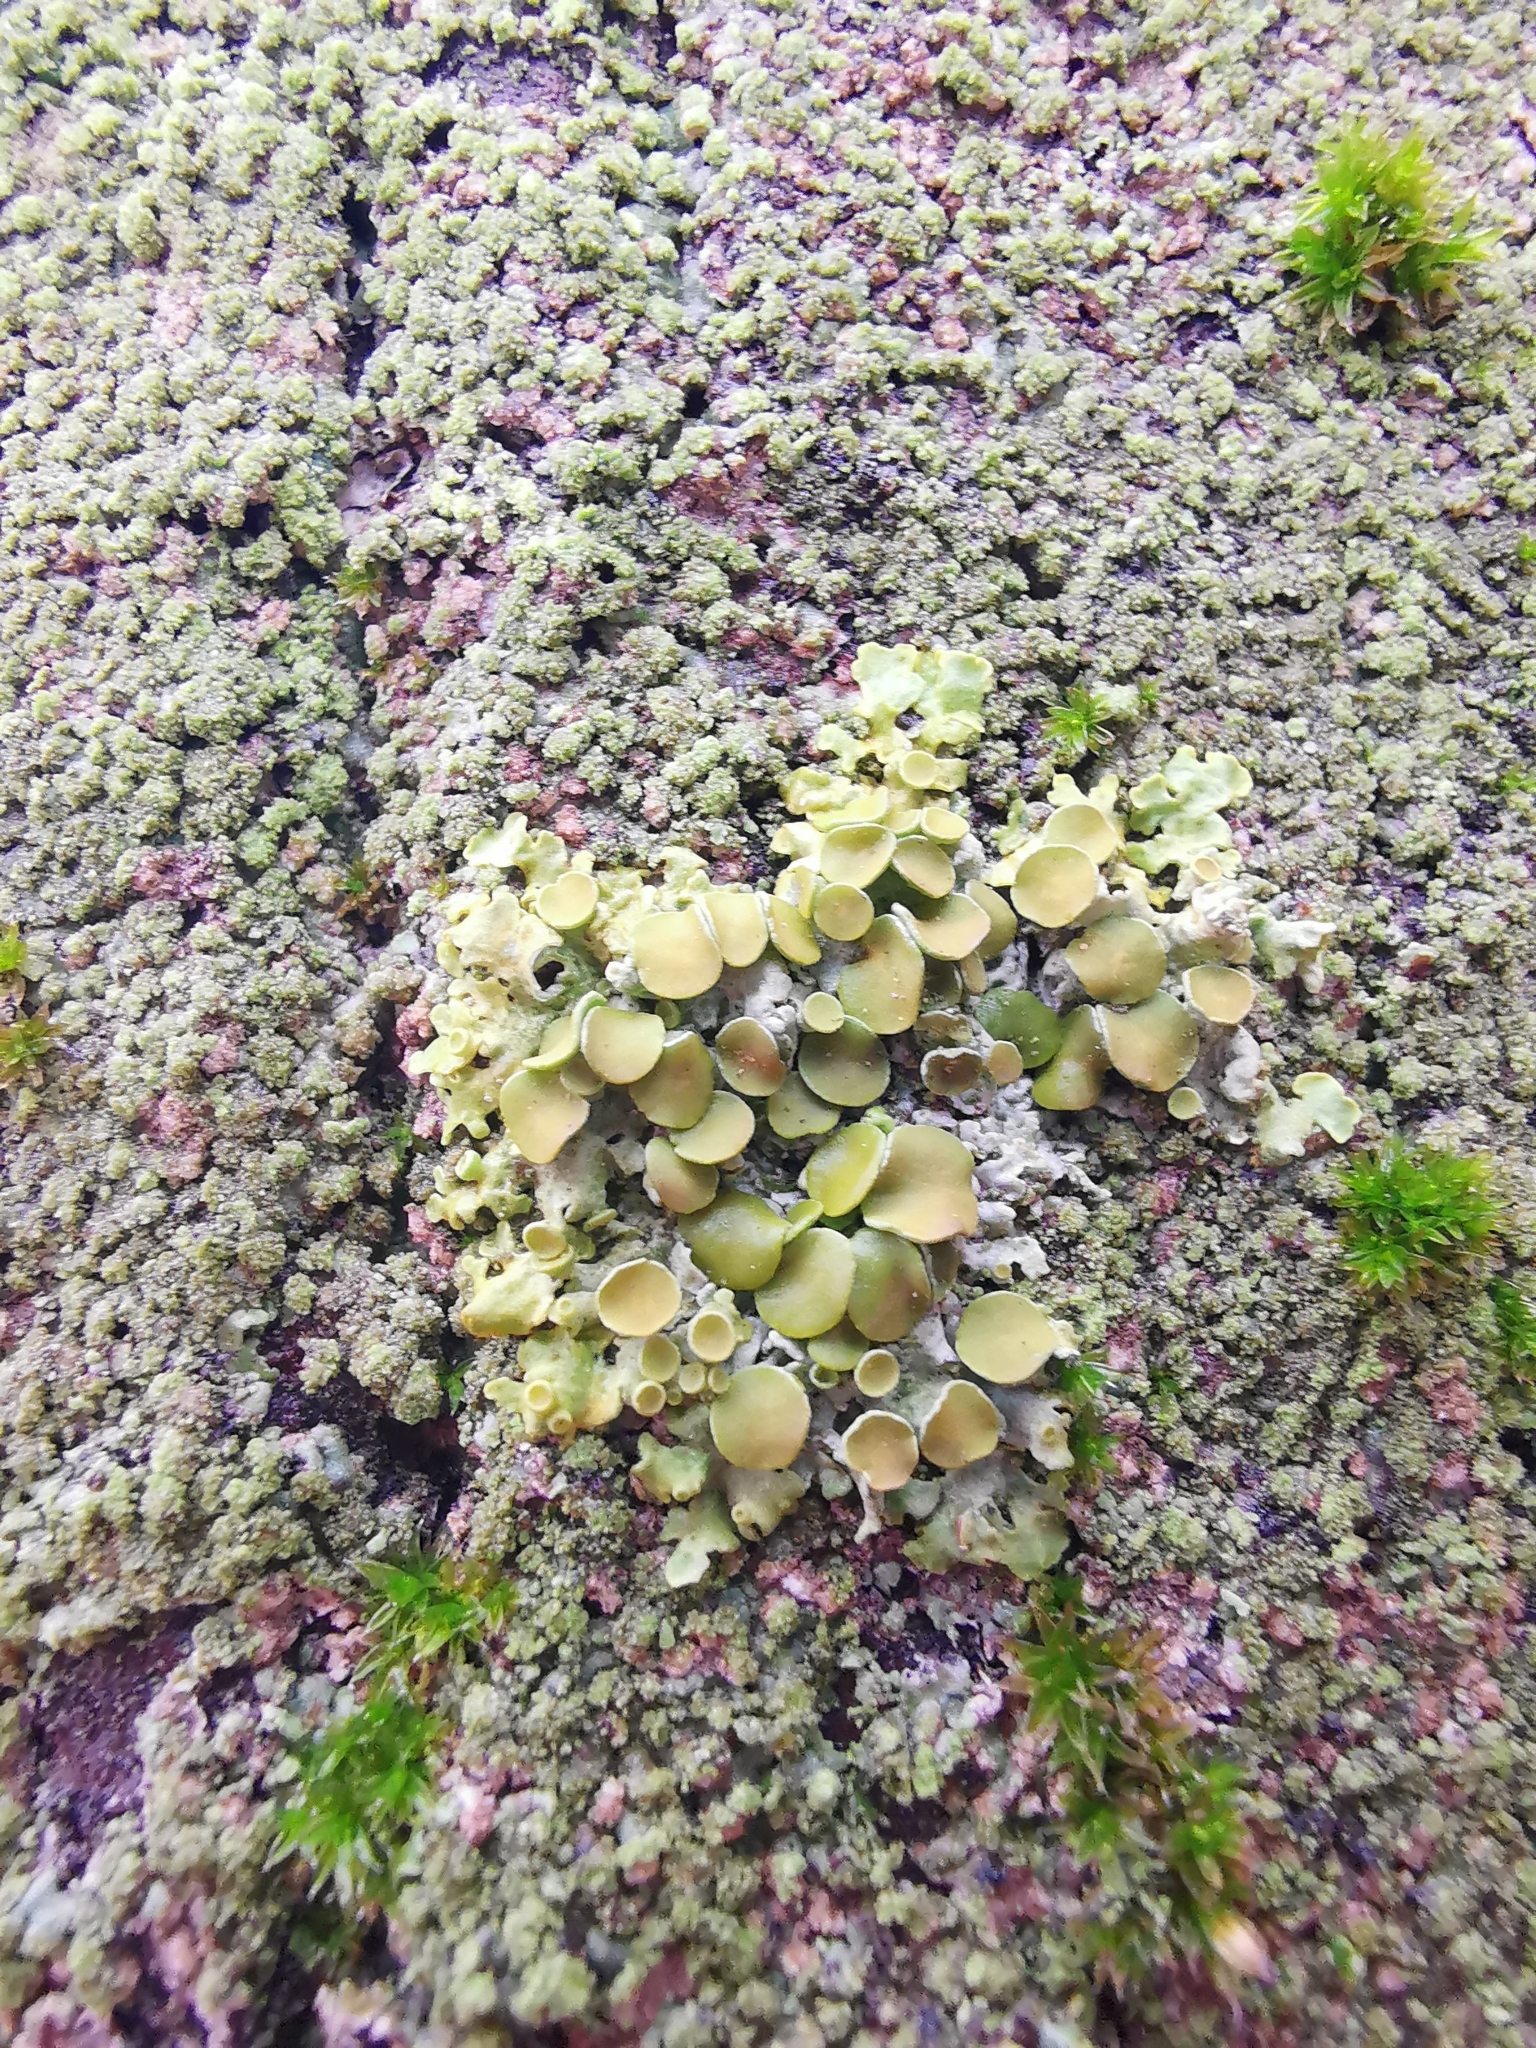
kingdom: Fungi
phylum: Ascomycota
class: Lecanoromycetes
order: Teloschistales
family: Teloschistaceae
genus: Xanthoria
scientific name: Xanthoria parietina
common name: Common orange lichen
